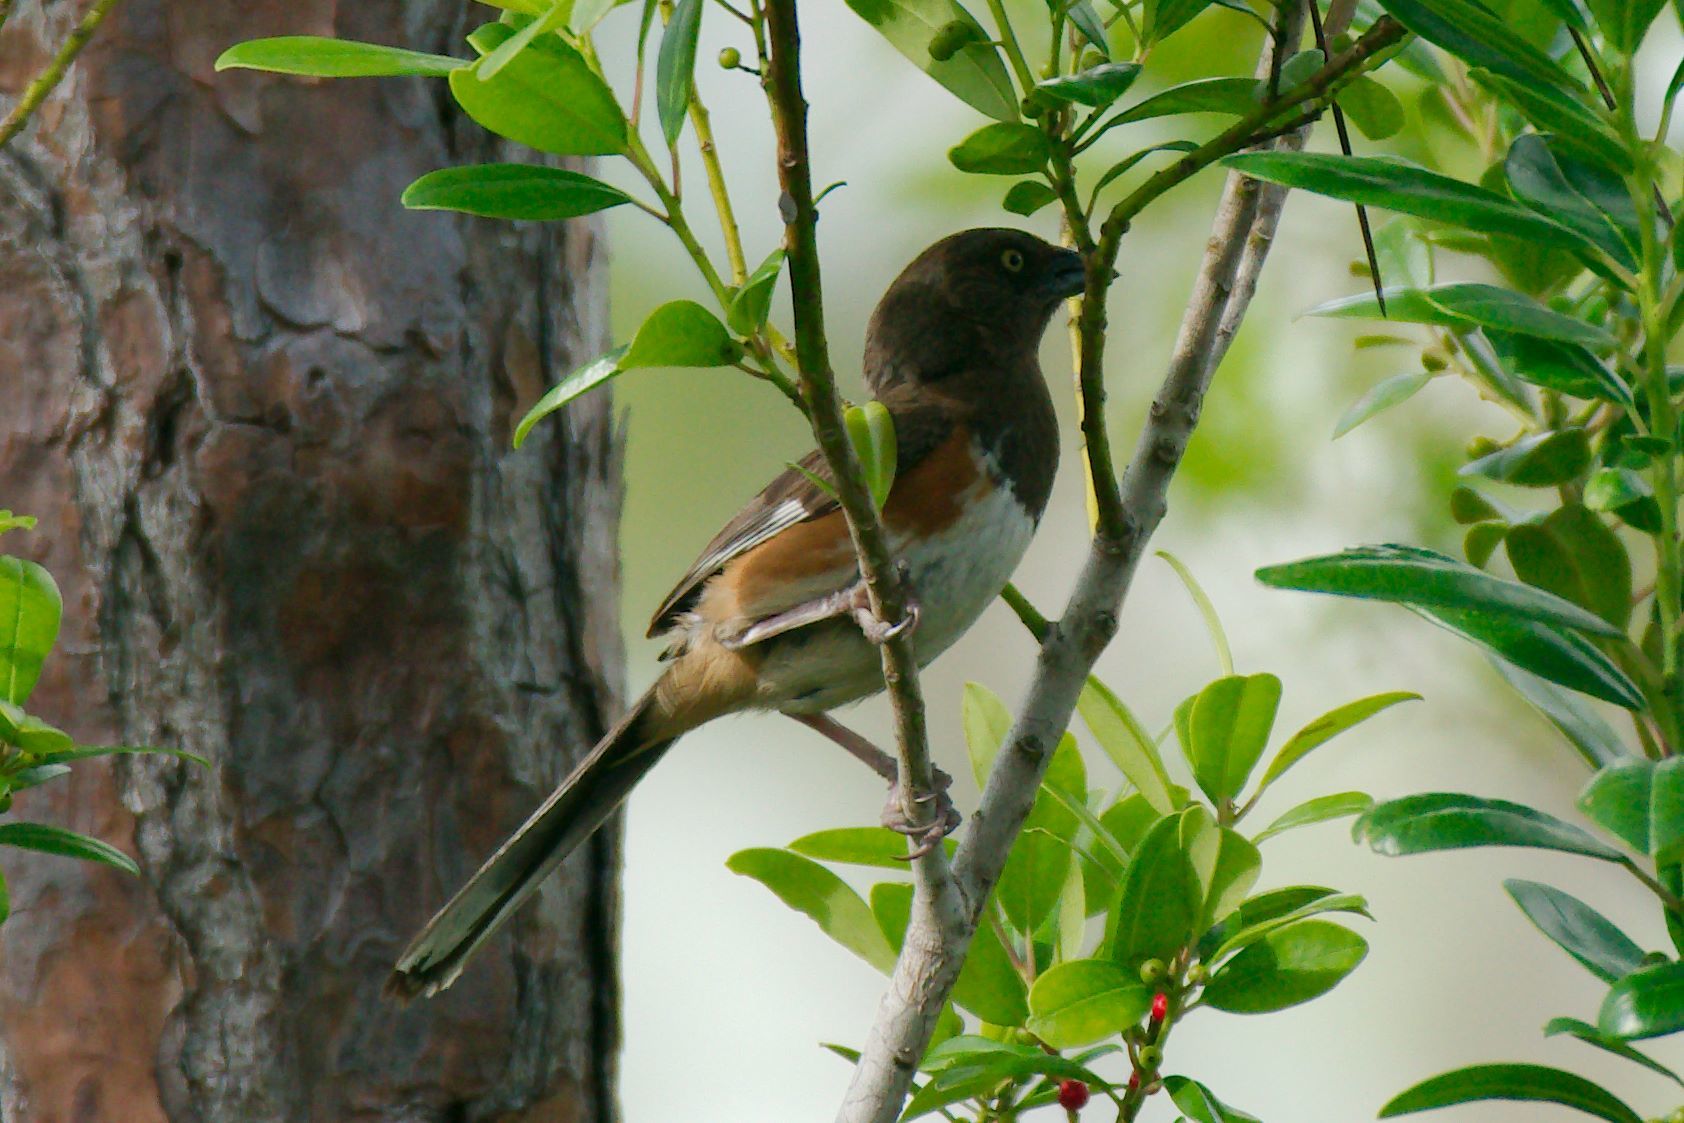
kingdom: Animalia
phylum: Chordata
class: Aves
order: Passeriformes
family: Passerellidae
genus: Pipilo
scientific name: Pipilo erythrophthalmus
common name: Eastern towhee
